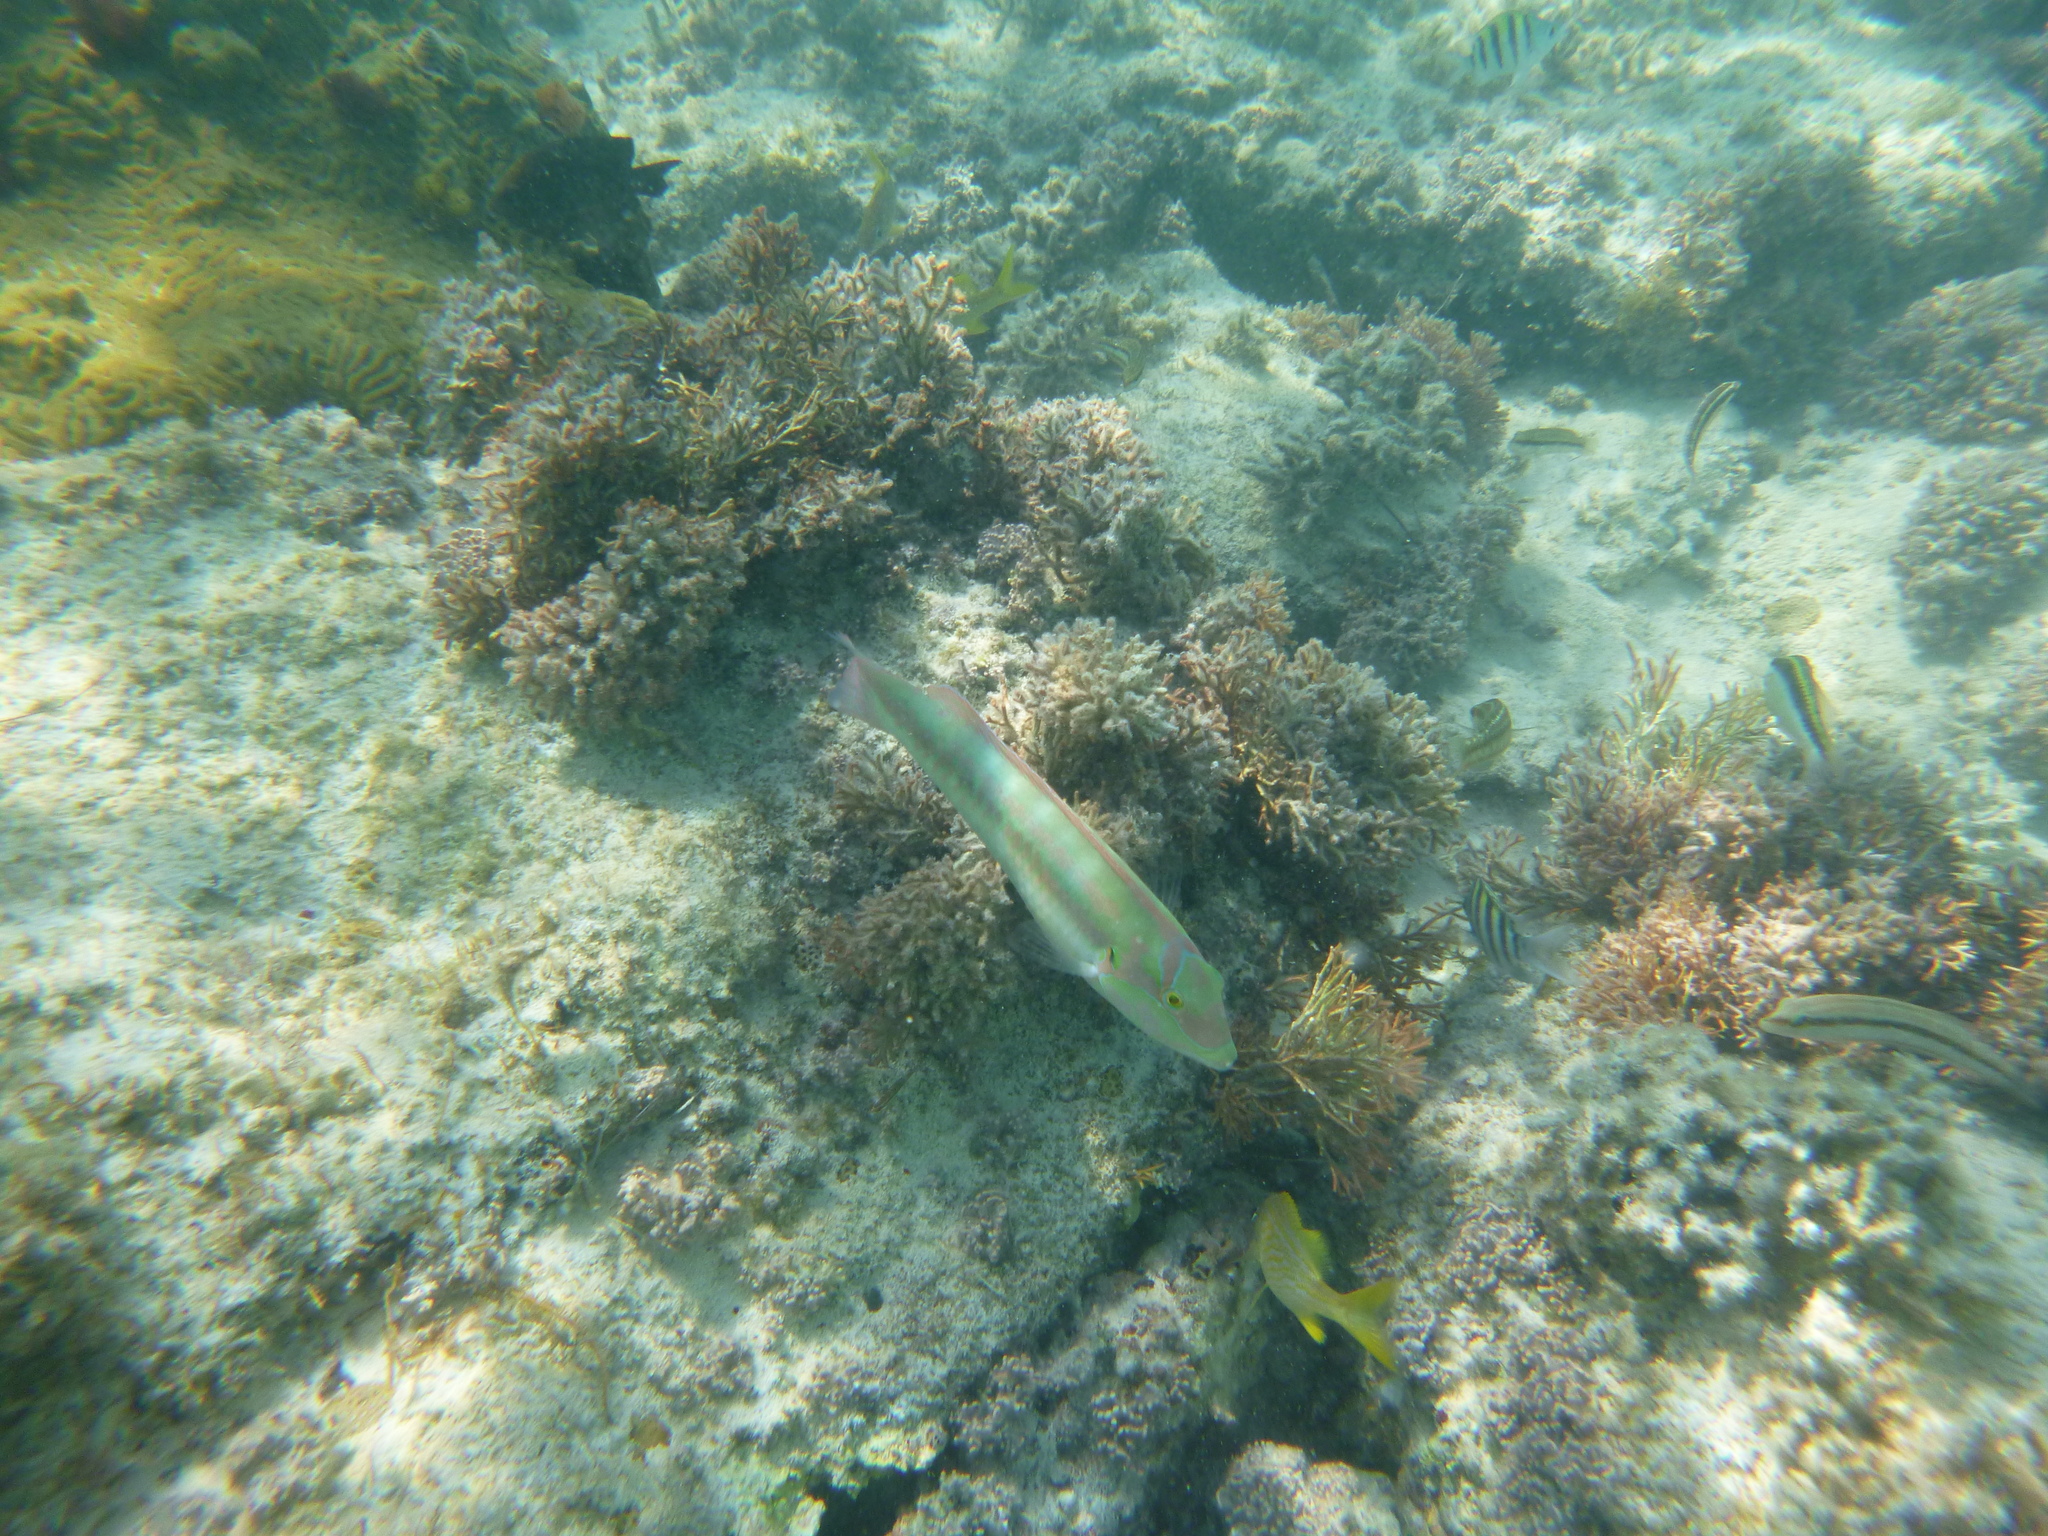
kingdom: Animalia
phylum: Chordata
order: Perciformes
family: Labridae
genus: Halichoeres
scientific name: Halichoeres bivittatus
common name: Slippery dick
